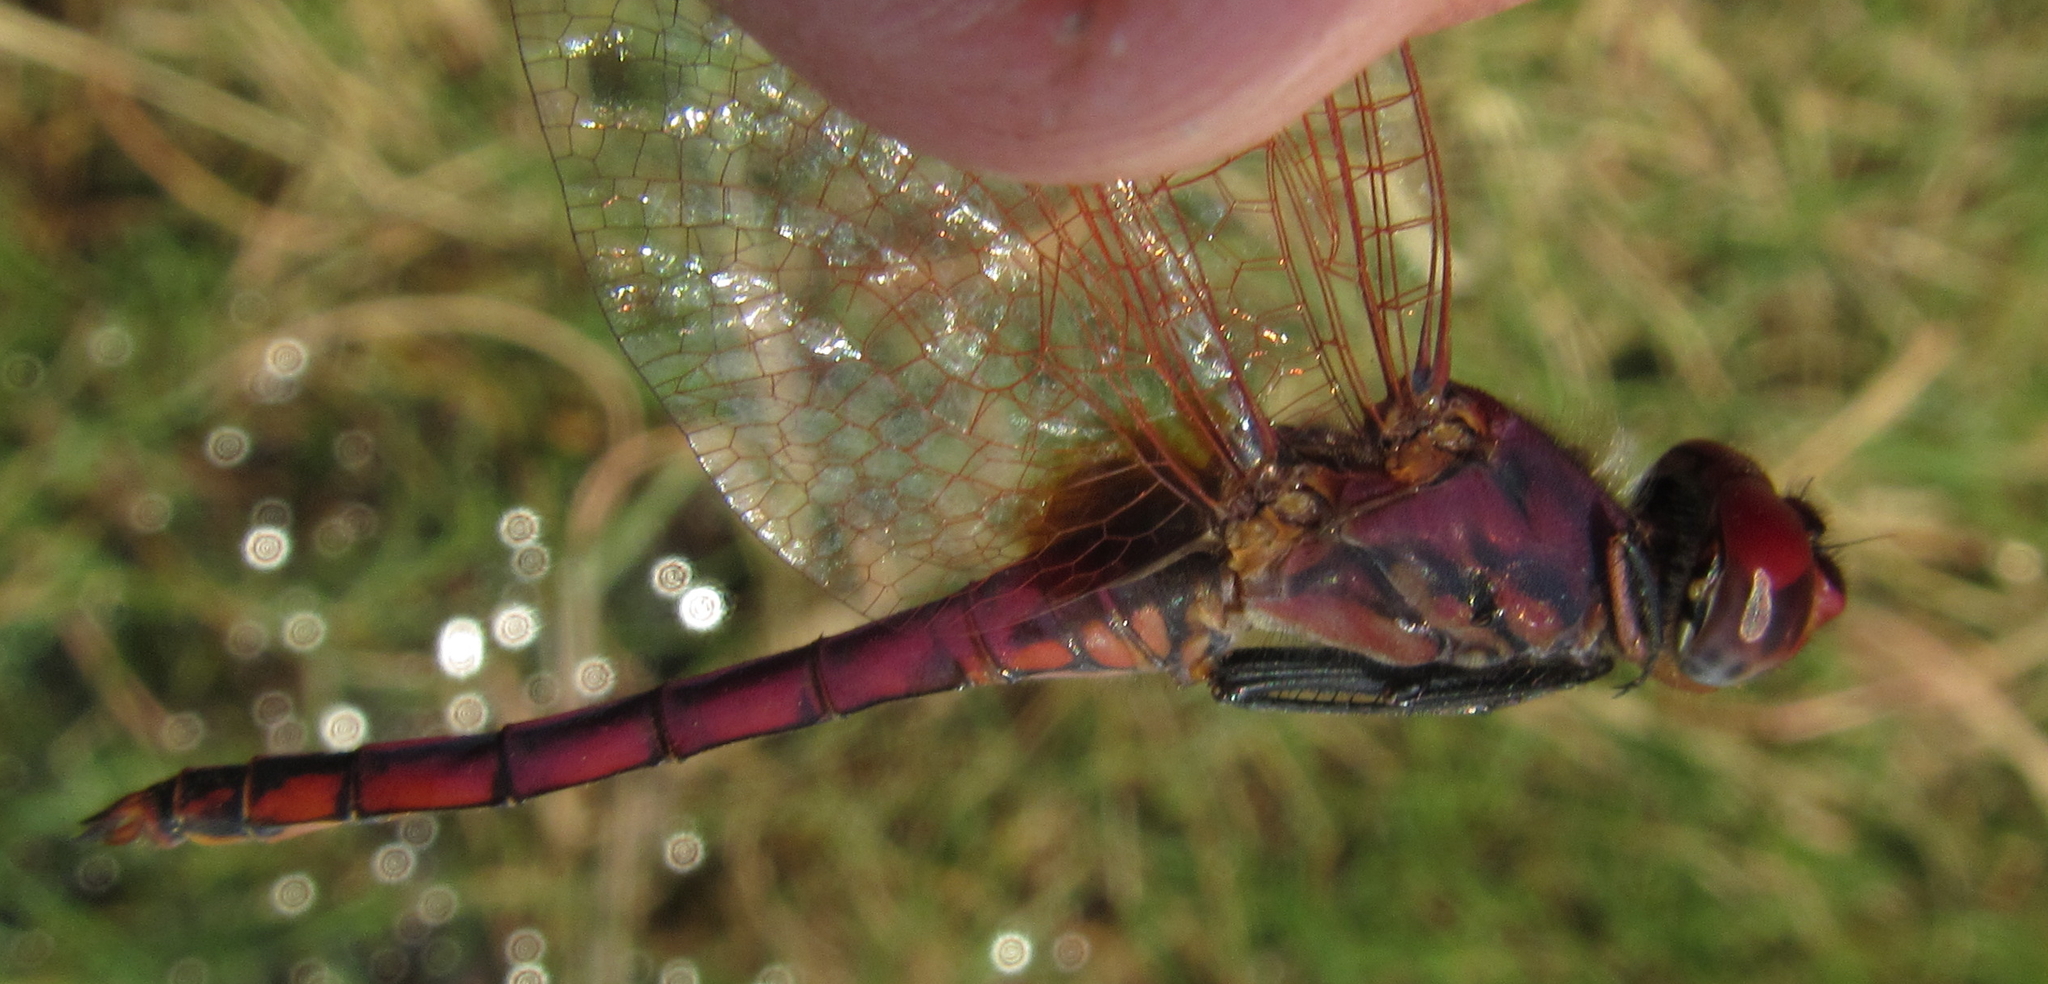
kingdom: Animalia
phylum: Arthropoda
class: Insecta
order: Odonata
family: Libellulidae
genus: Trithemis
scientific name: Trithemis annulata
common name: Violet dropwing
